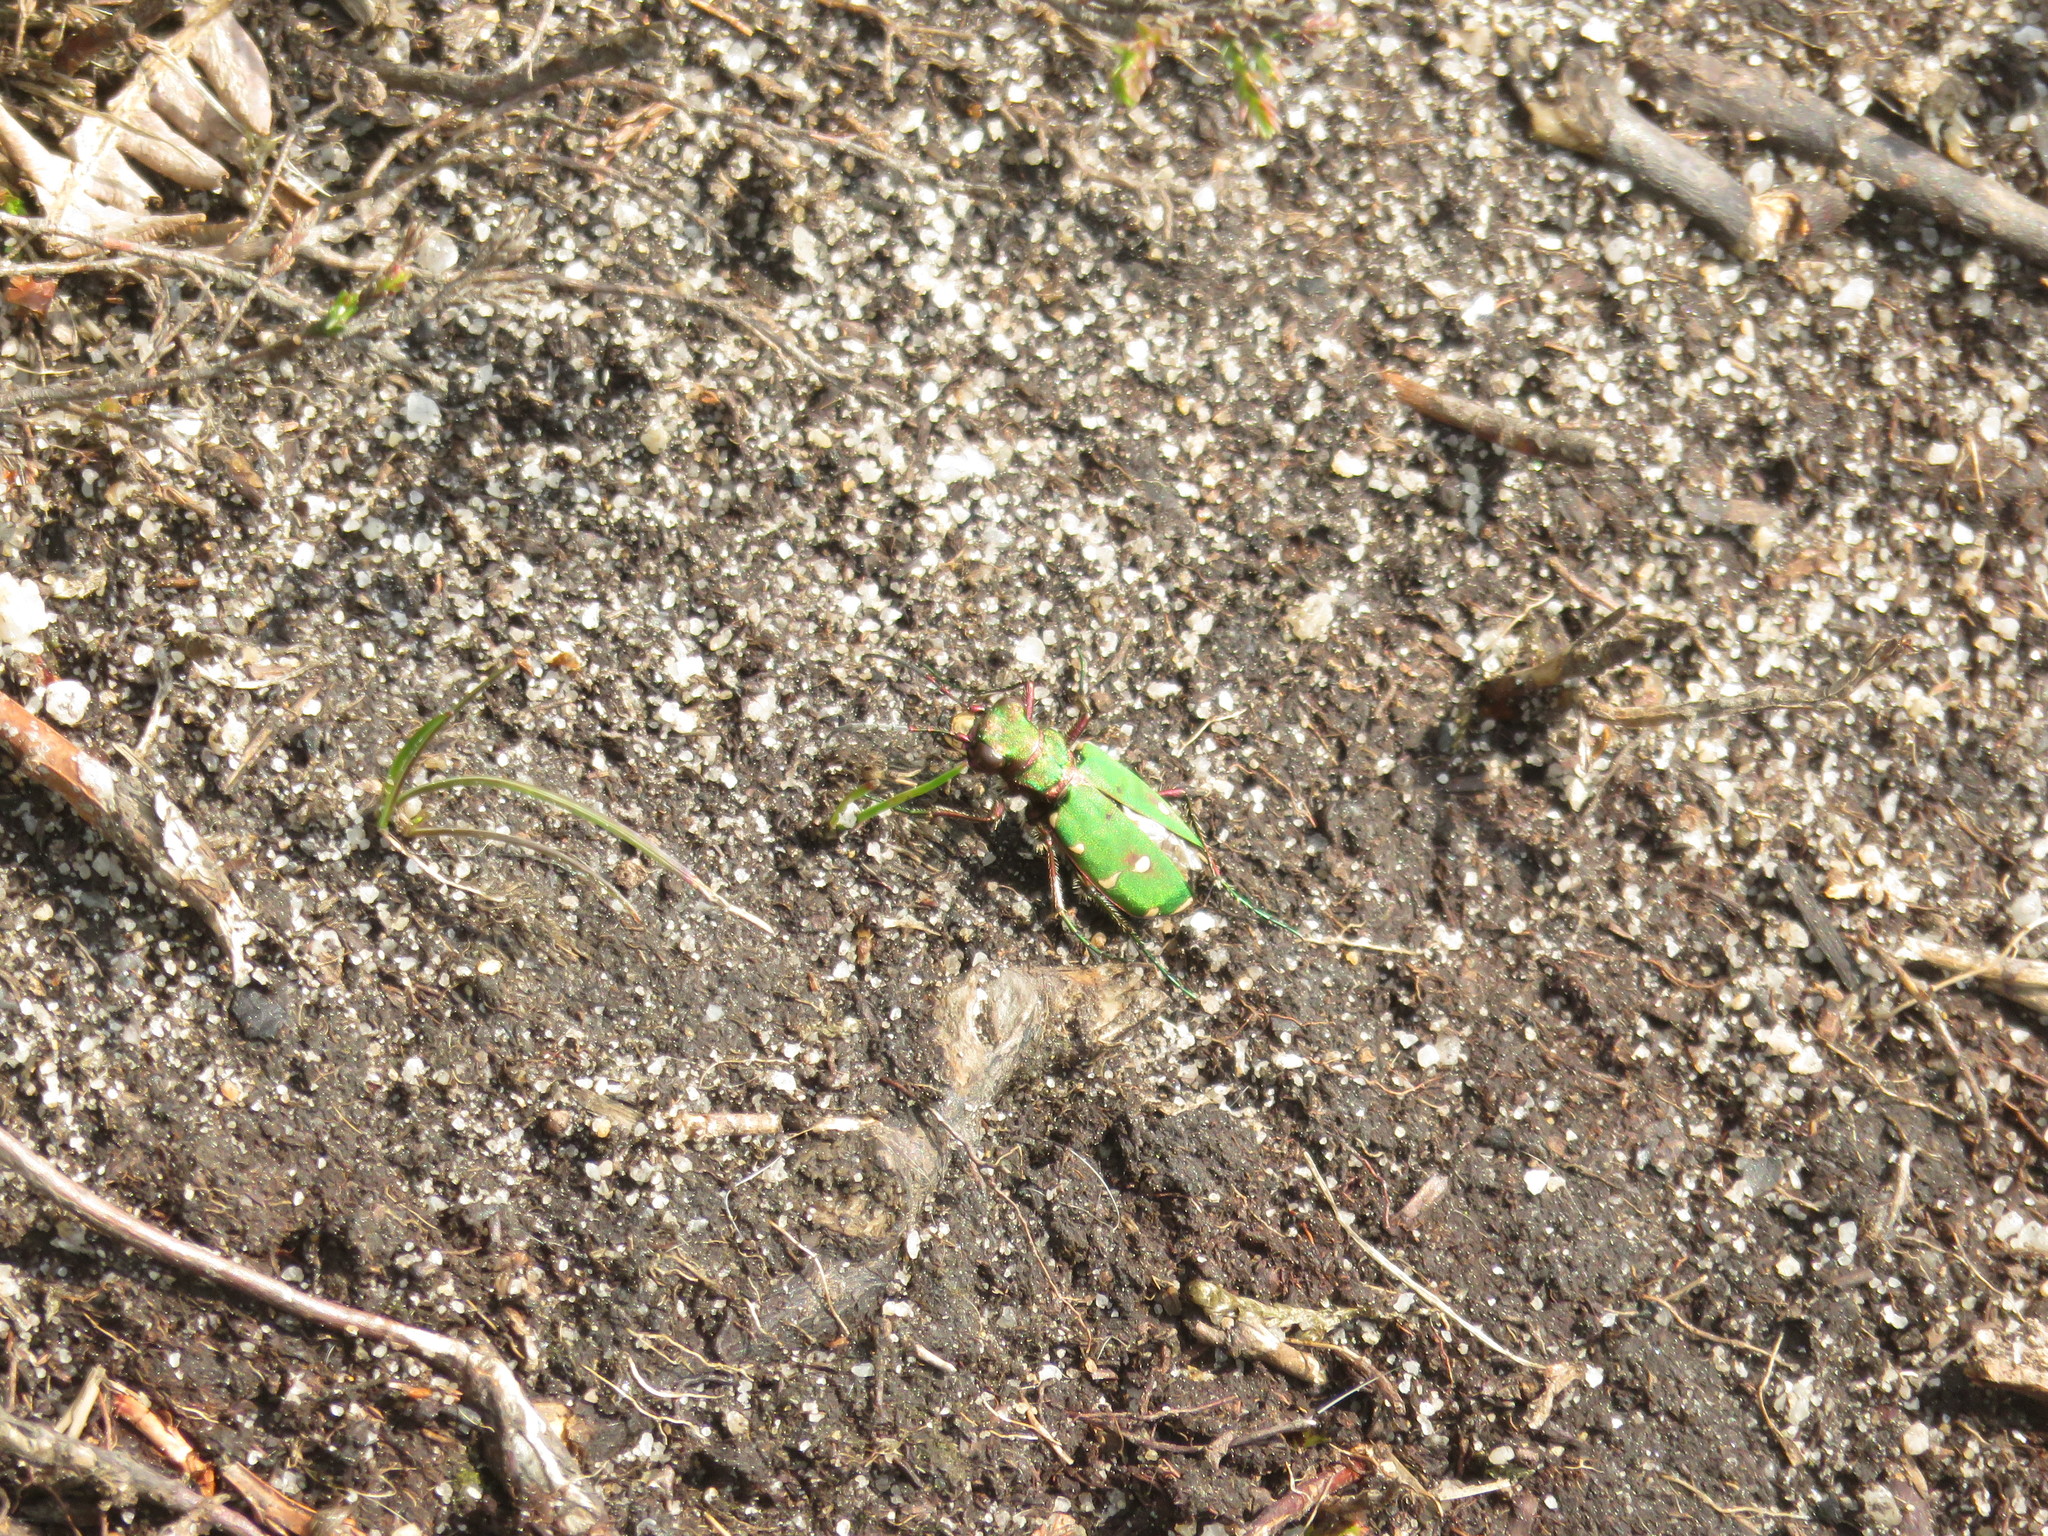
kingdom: Animalia
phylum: Arthropoda
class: Insecta
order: Coleoptera
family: Carabidae
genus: Cicindela
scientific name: Cicindela campestris
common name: Common tiger beetle
